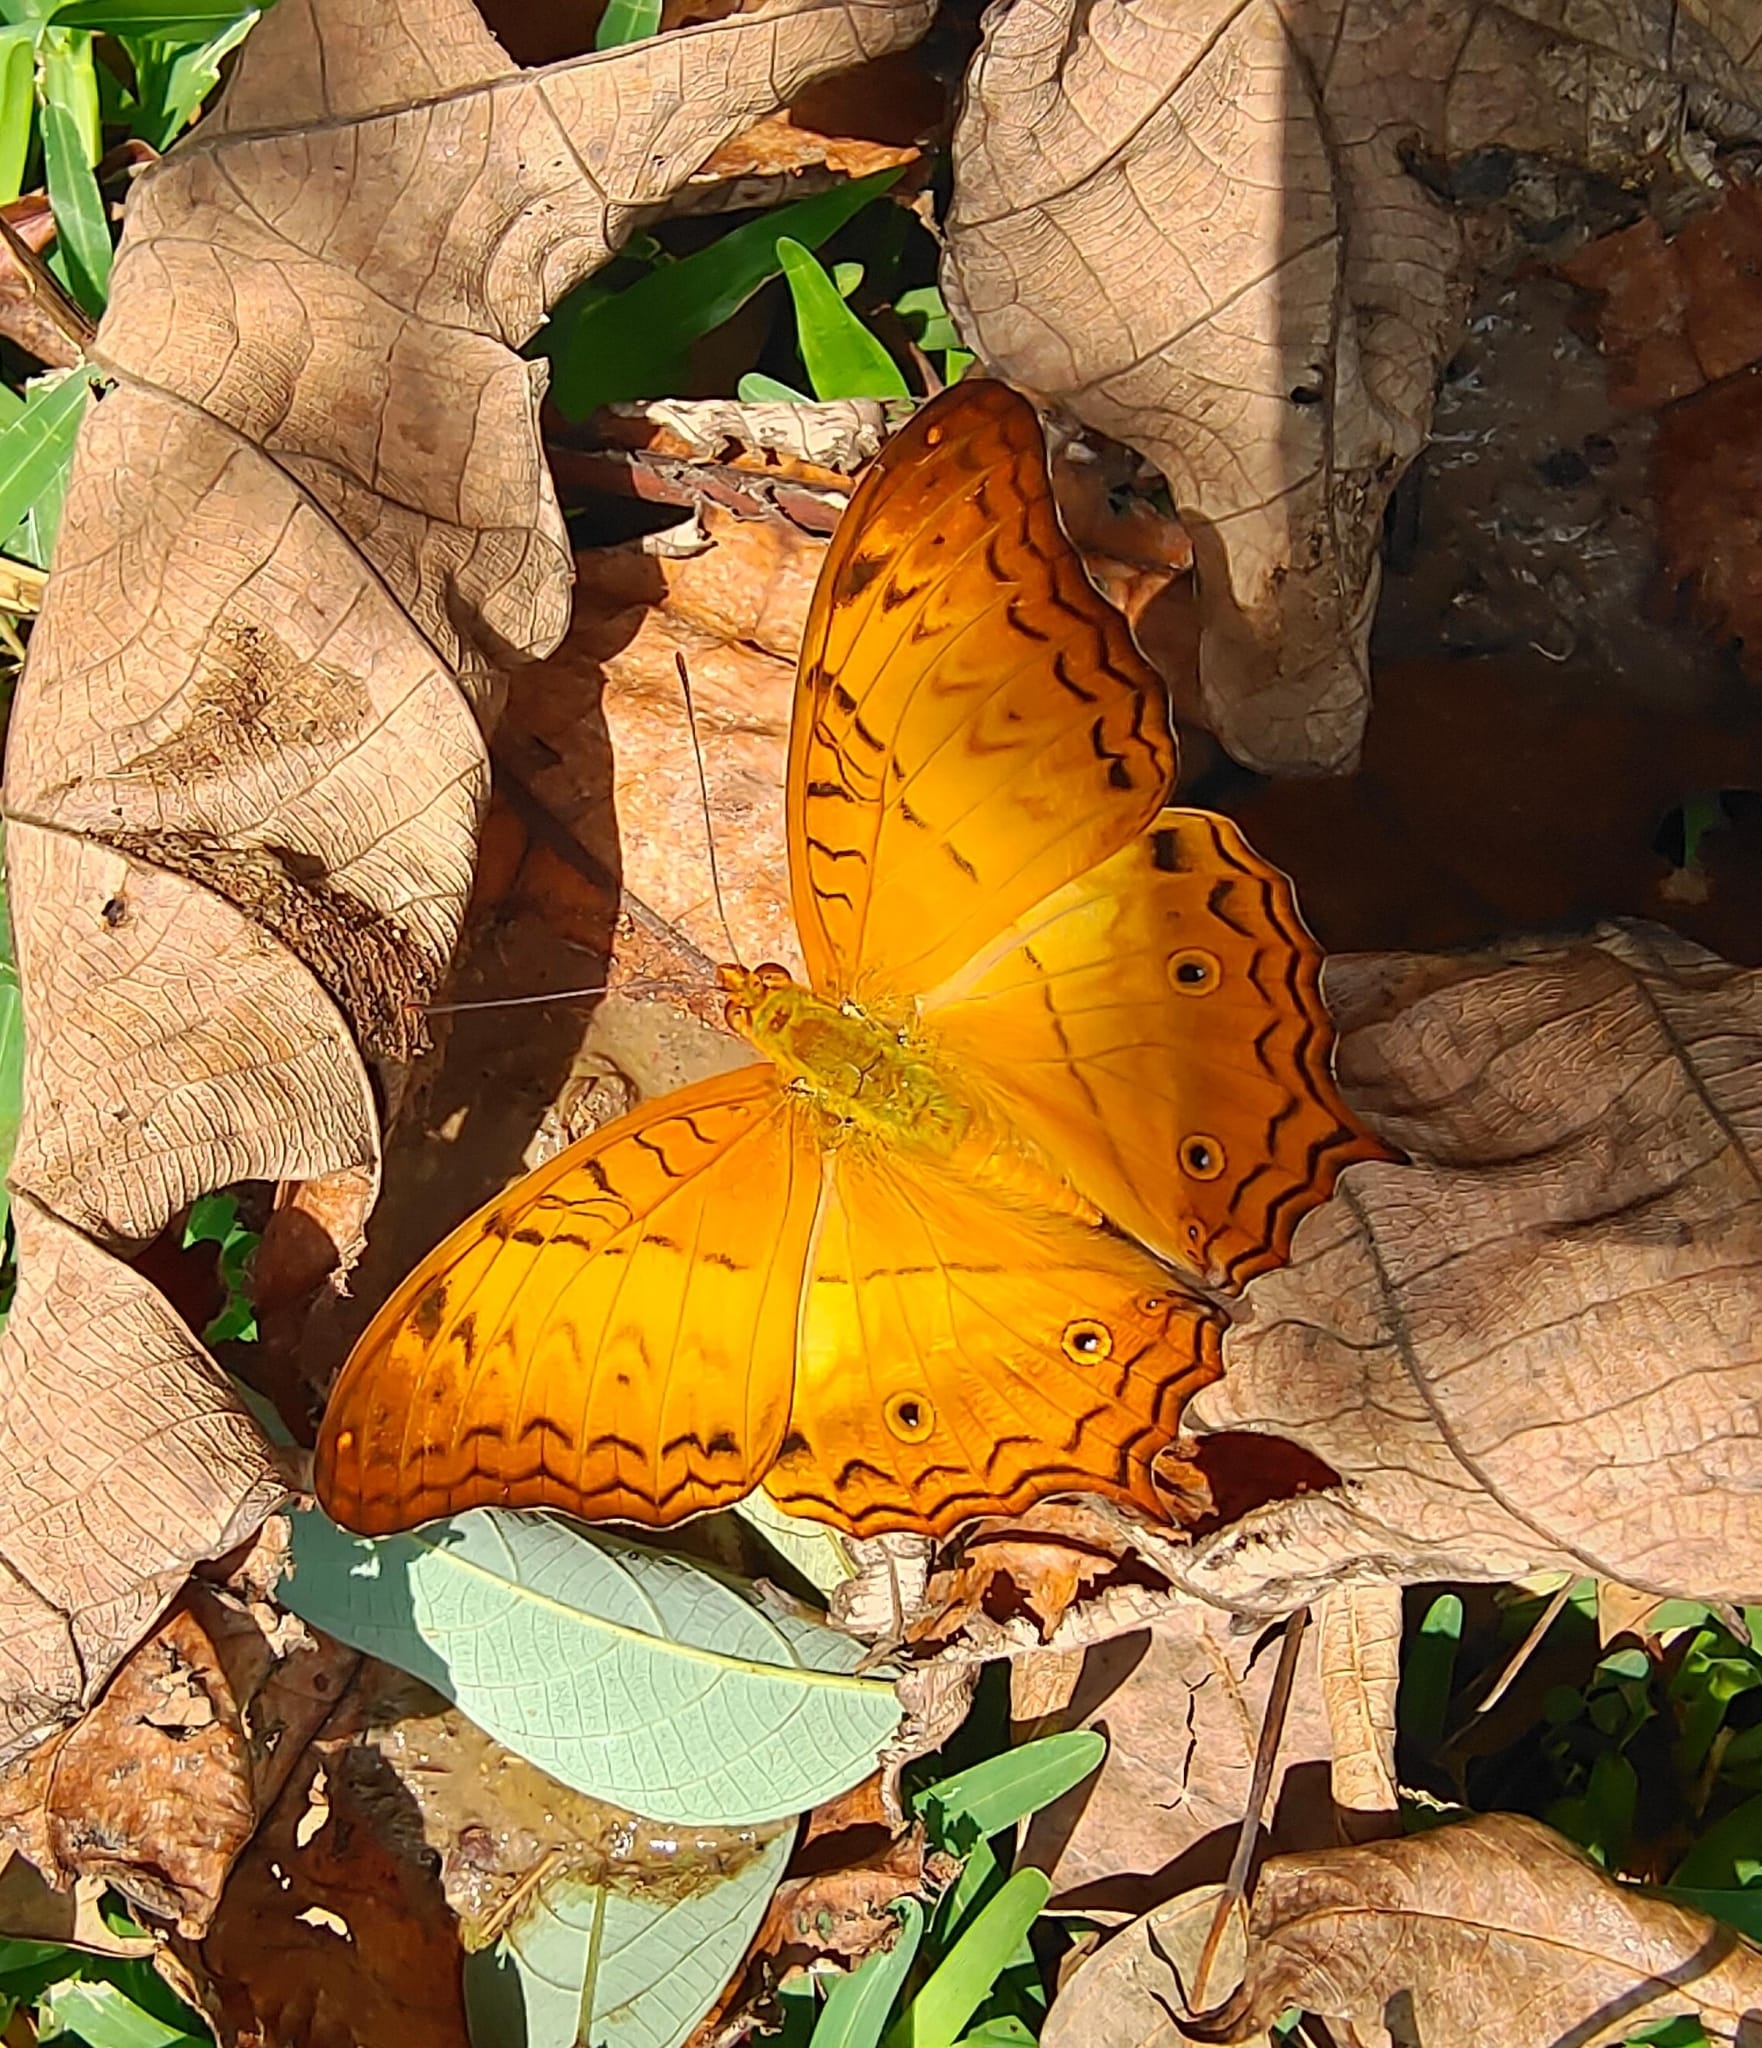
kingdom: Animalia
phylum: Arthropoda
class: Insecta
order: Lepidoptera
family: Nymphalidae
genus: Vindula
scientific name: Vindula deione
